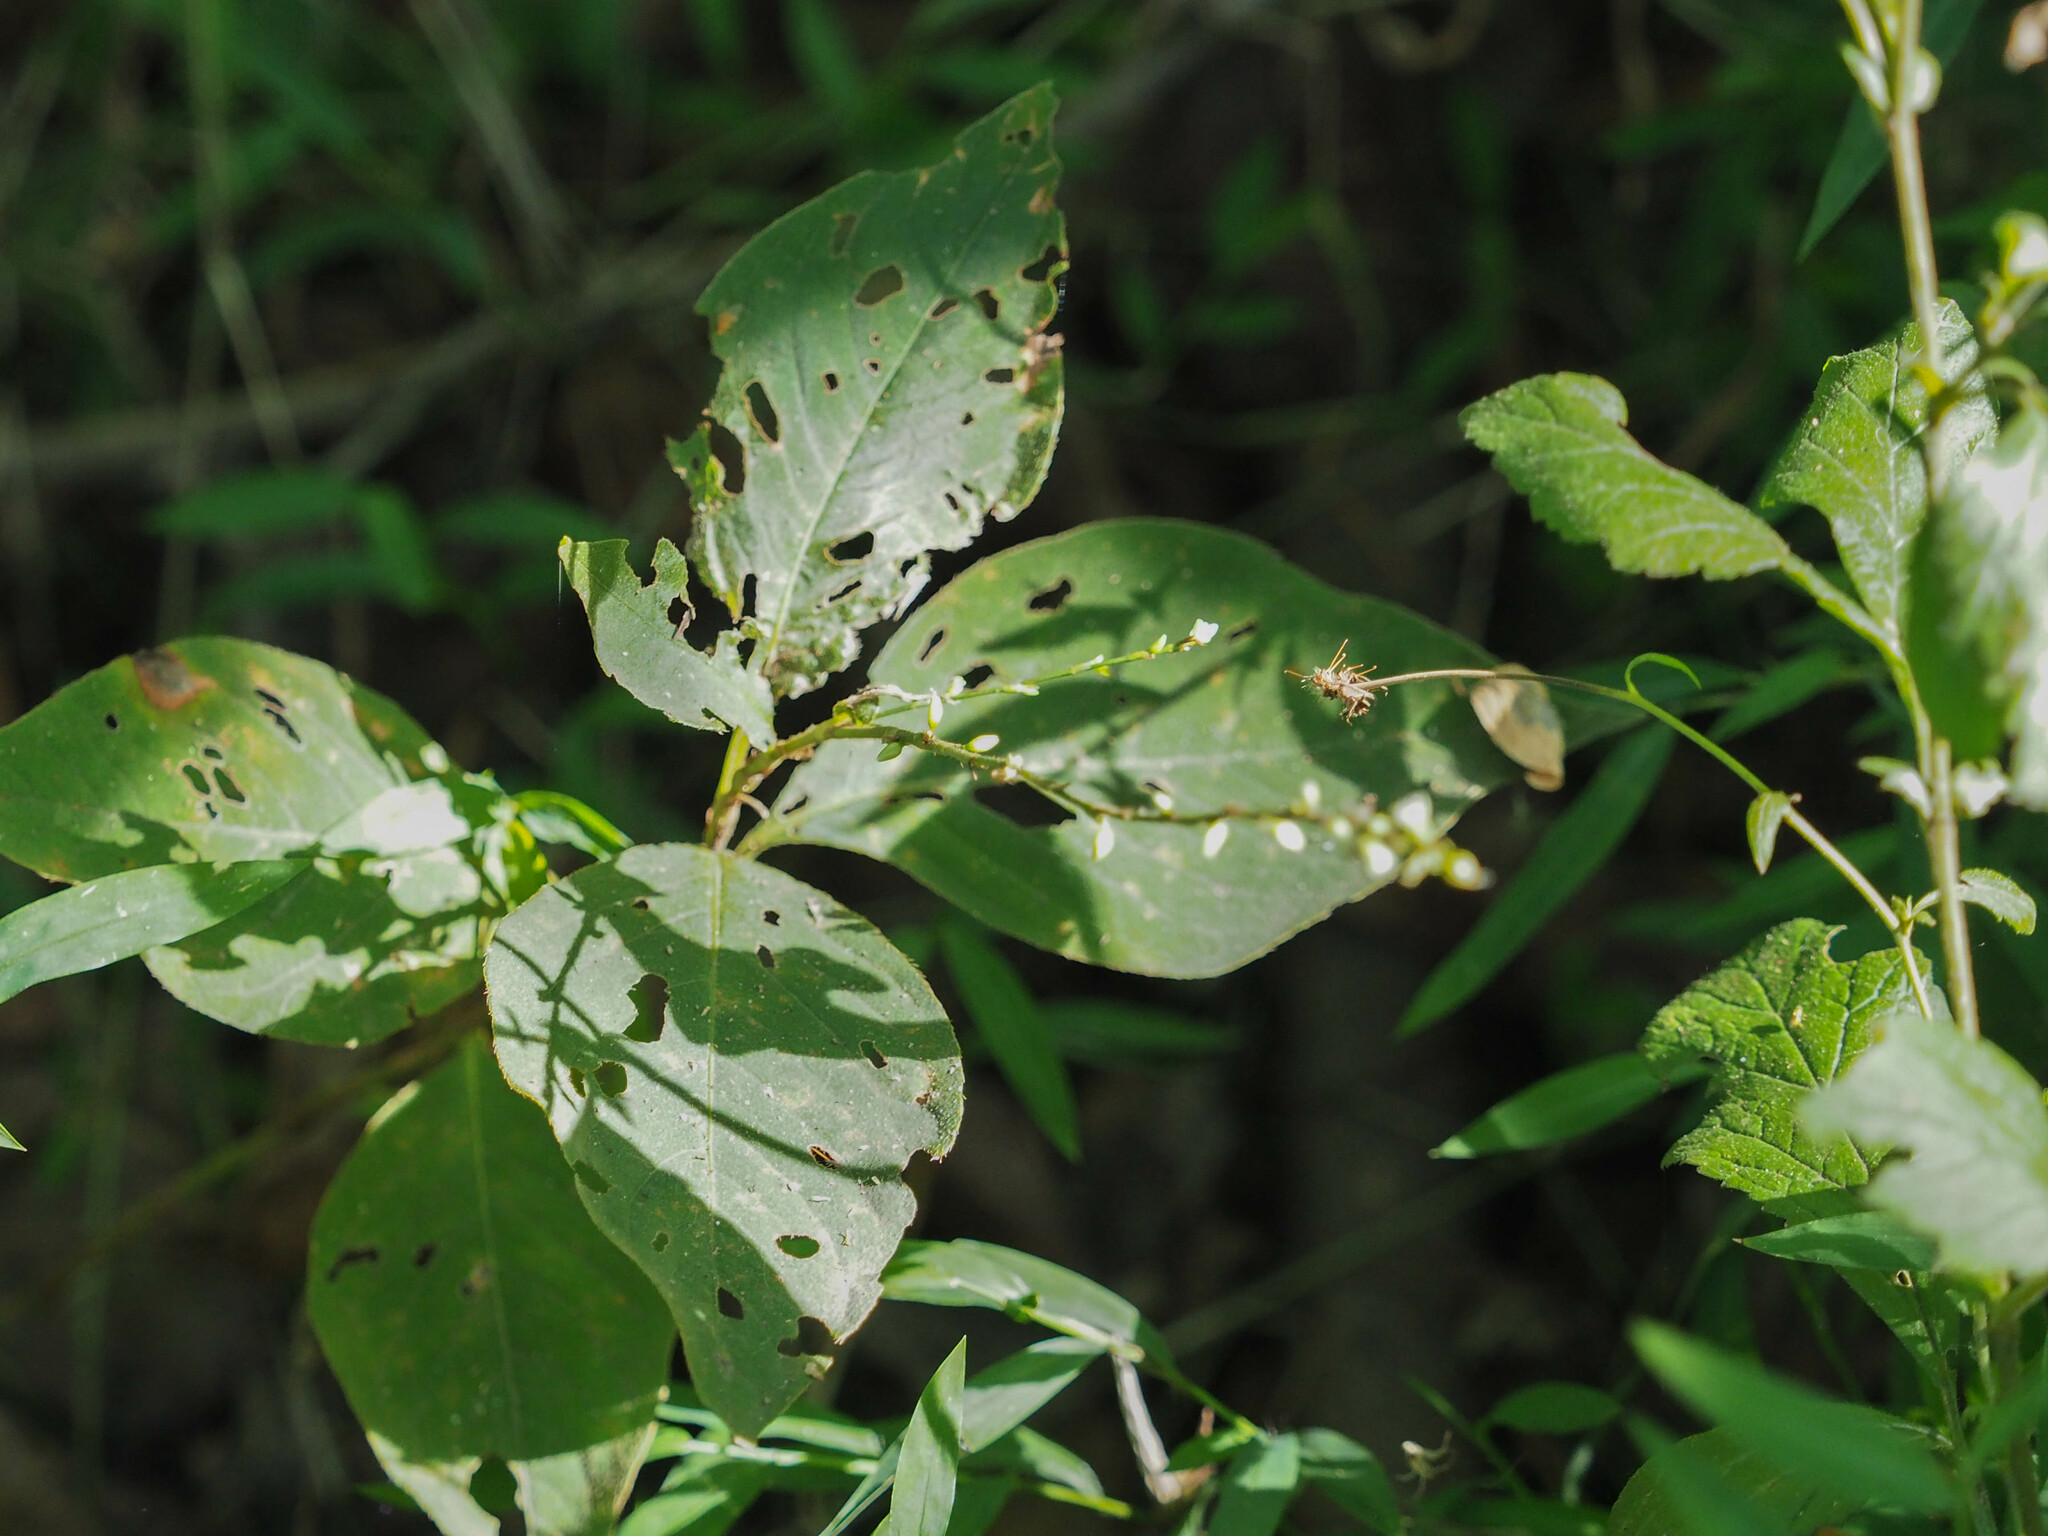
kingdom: Plantae
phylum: Tracheophyta
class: Magnoliopsida
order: Caryophyllales
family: Polygonaceae
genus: Persicaria
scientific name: Persicaria virginiana
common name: Jumpseed
